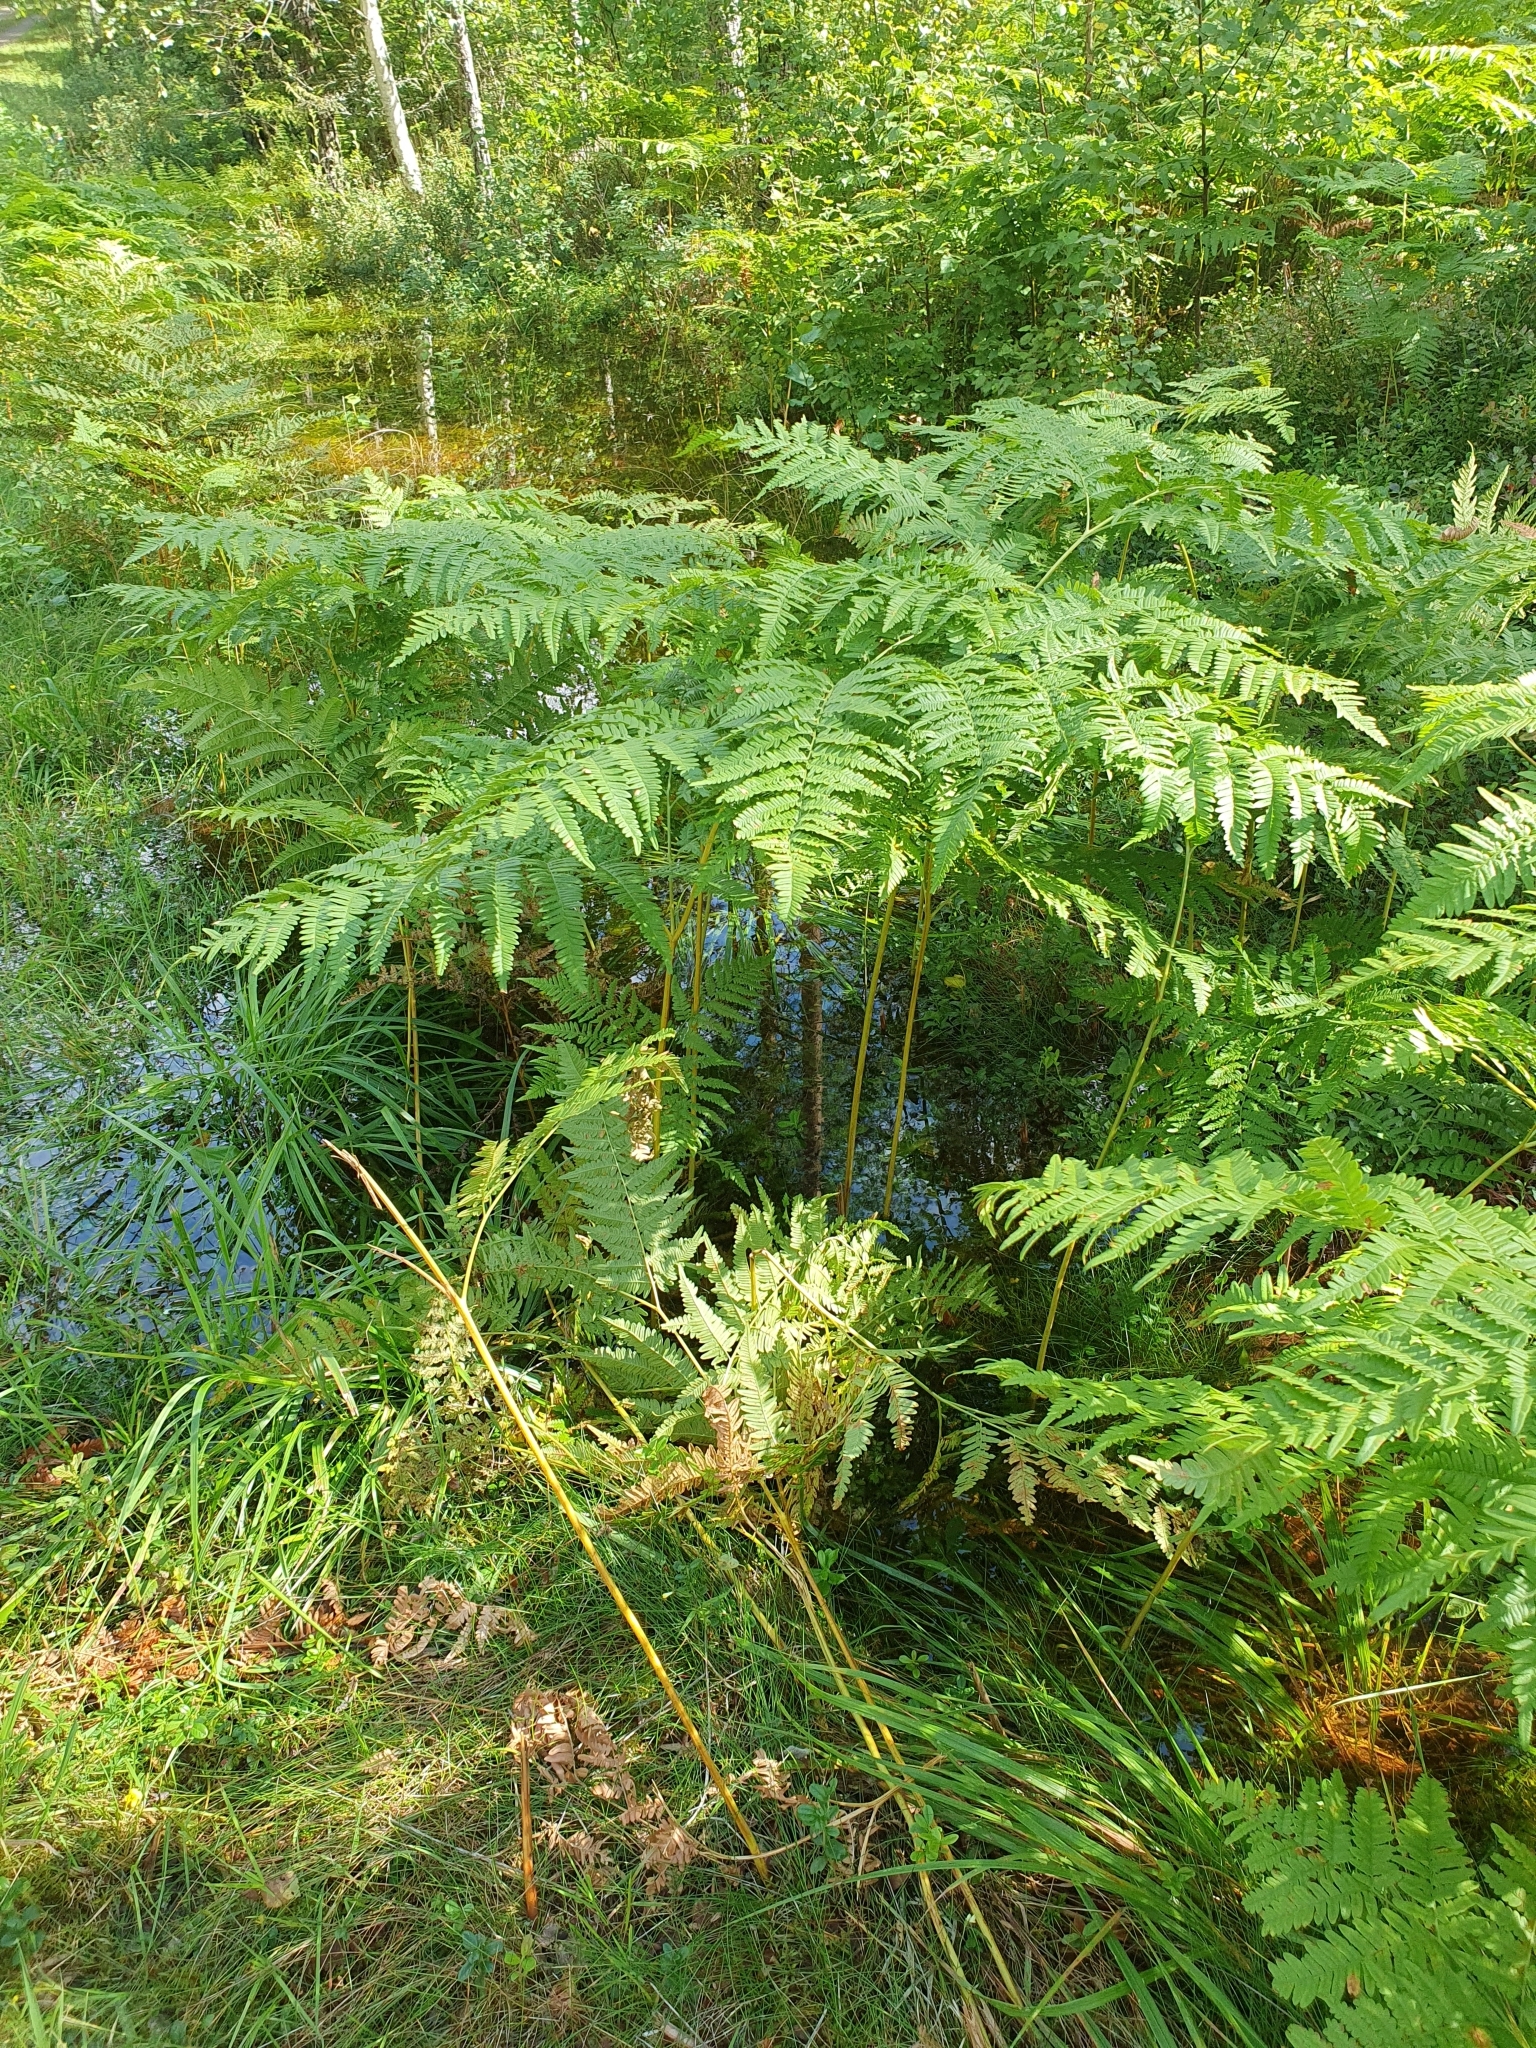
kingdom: Plantae
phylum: Tracheophyta
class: Polypodiopsida
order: Polypodiales
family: Dennstaedtiaceae
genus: Pteridium
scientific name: Pteridium aquilinum
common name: Bracken
